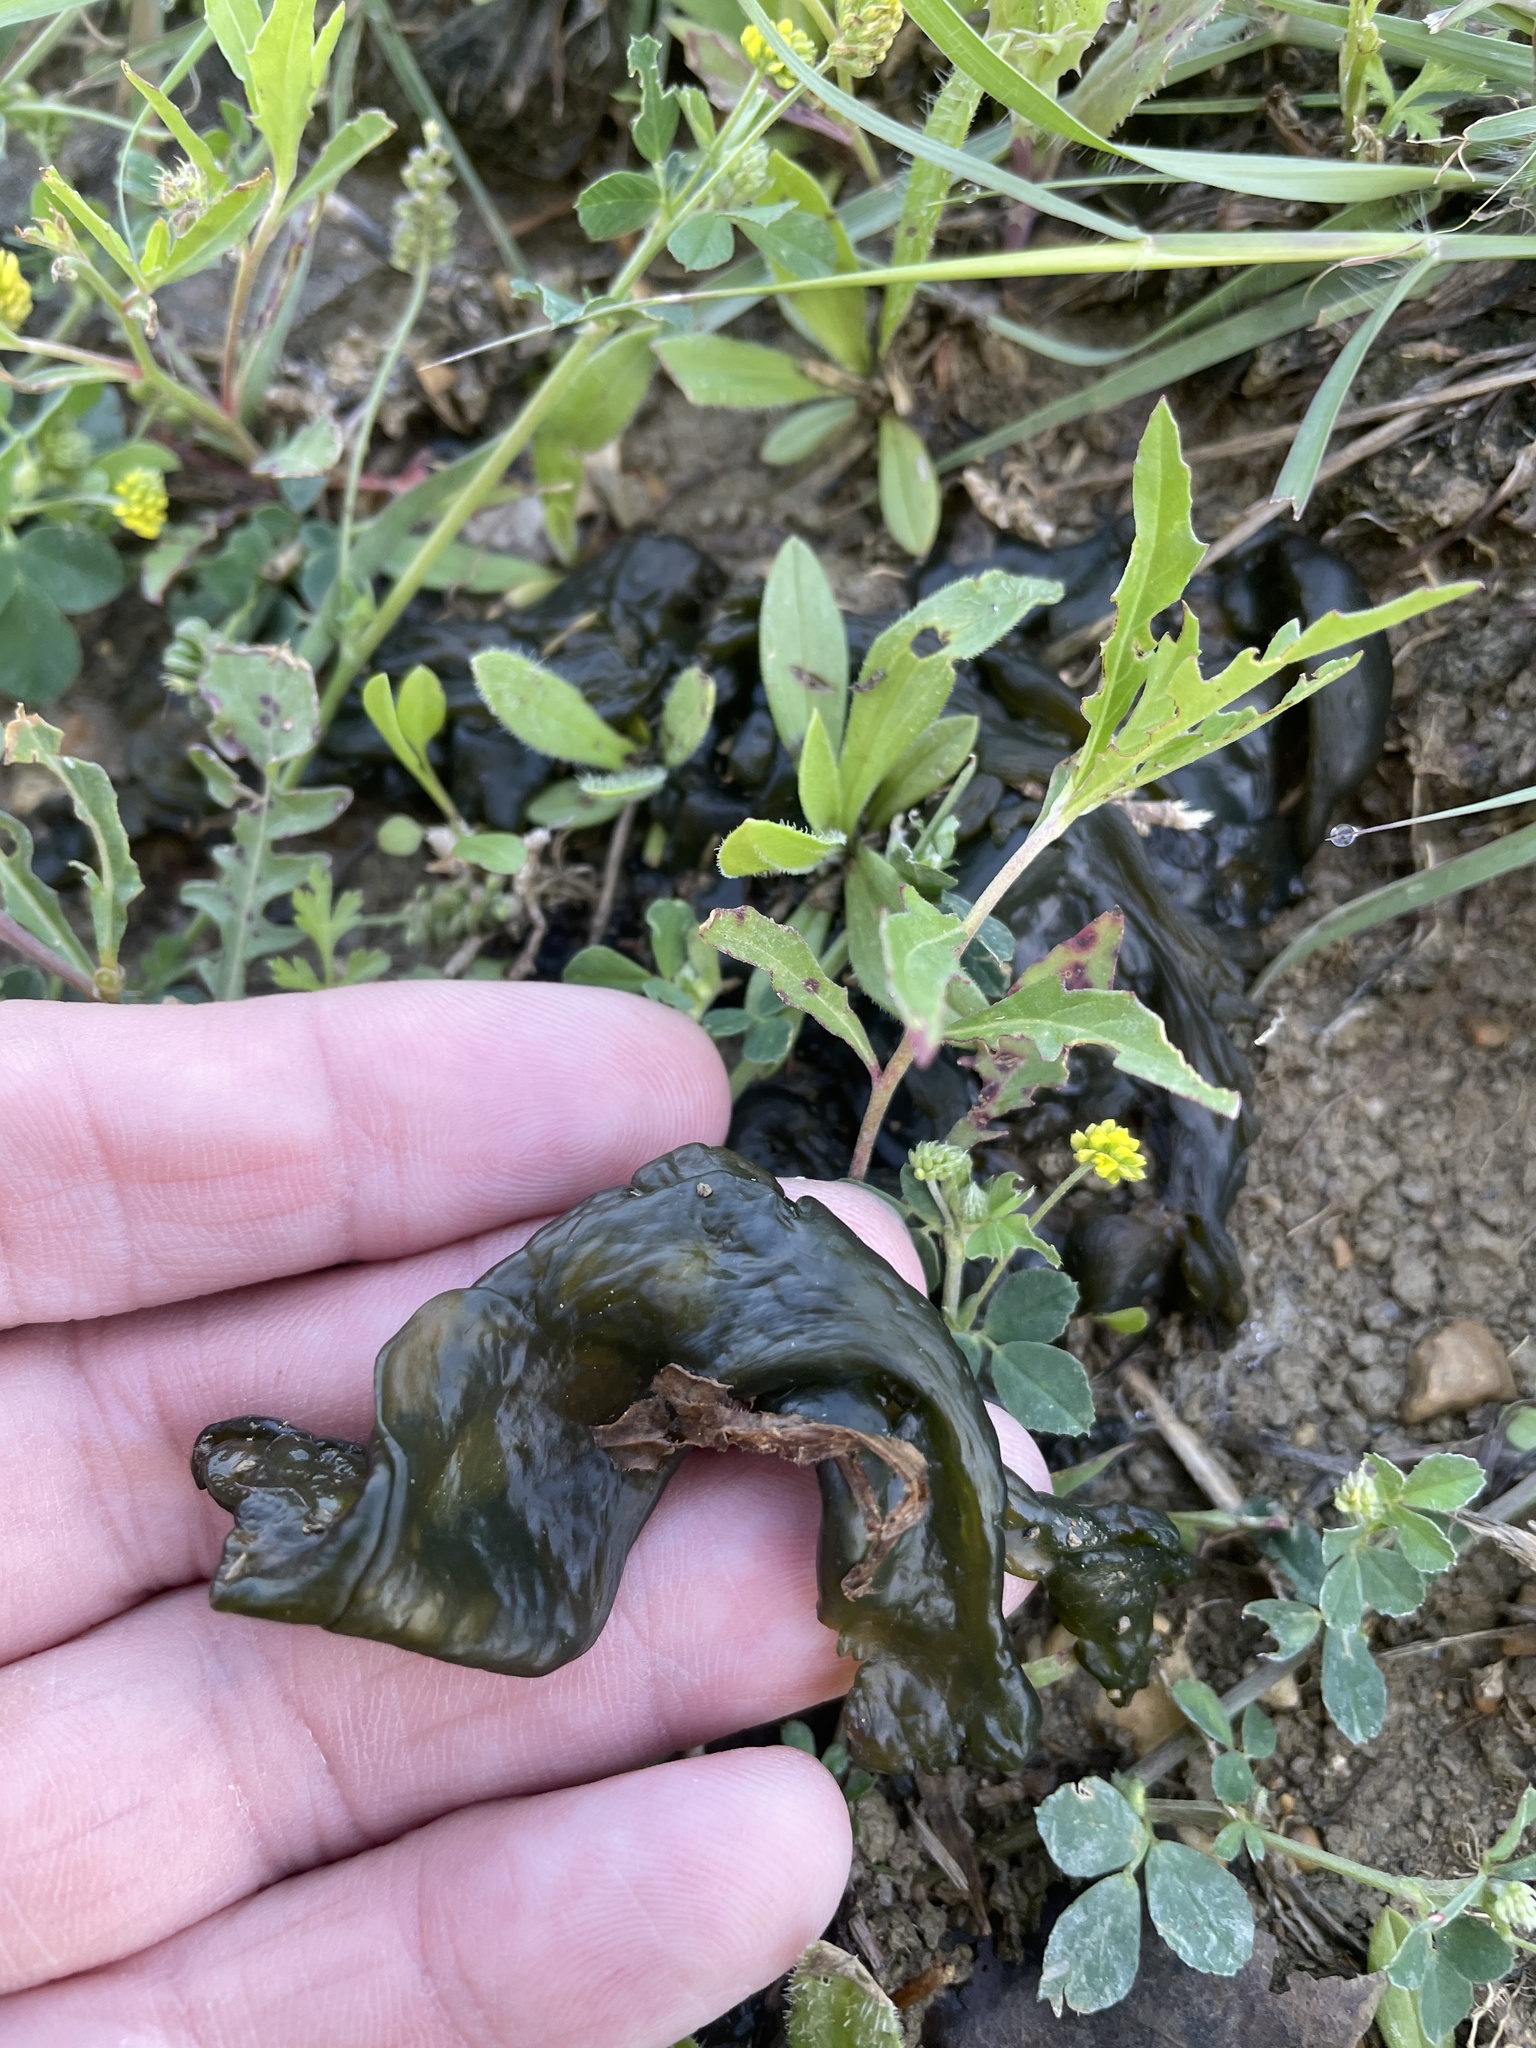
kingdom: Bacteria
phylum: Cyanobacteria
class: Cyanobacteriia
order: Cyanobacteriales
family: Nostocaceae
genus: Nostoc
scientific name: Nostoc commune
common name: Star jelly
